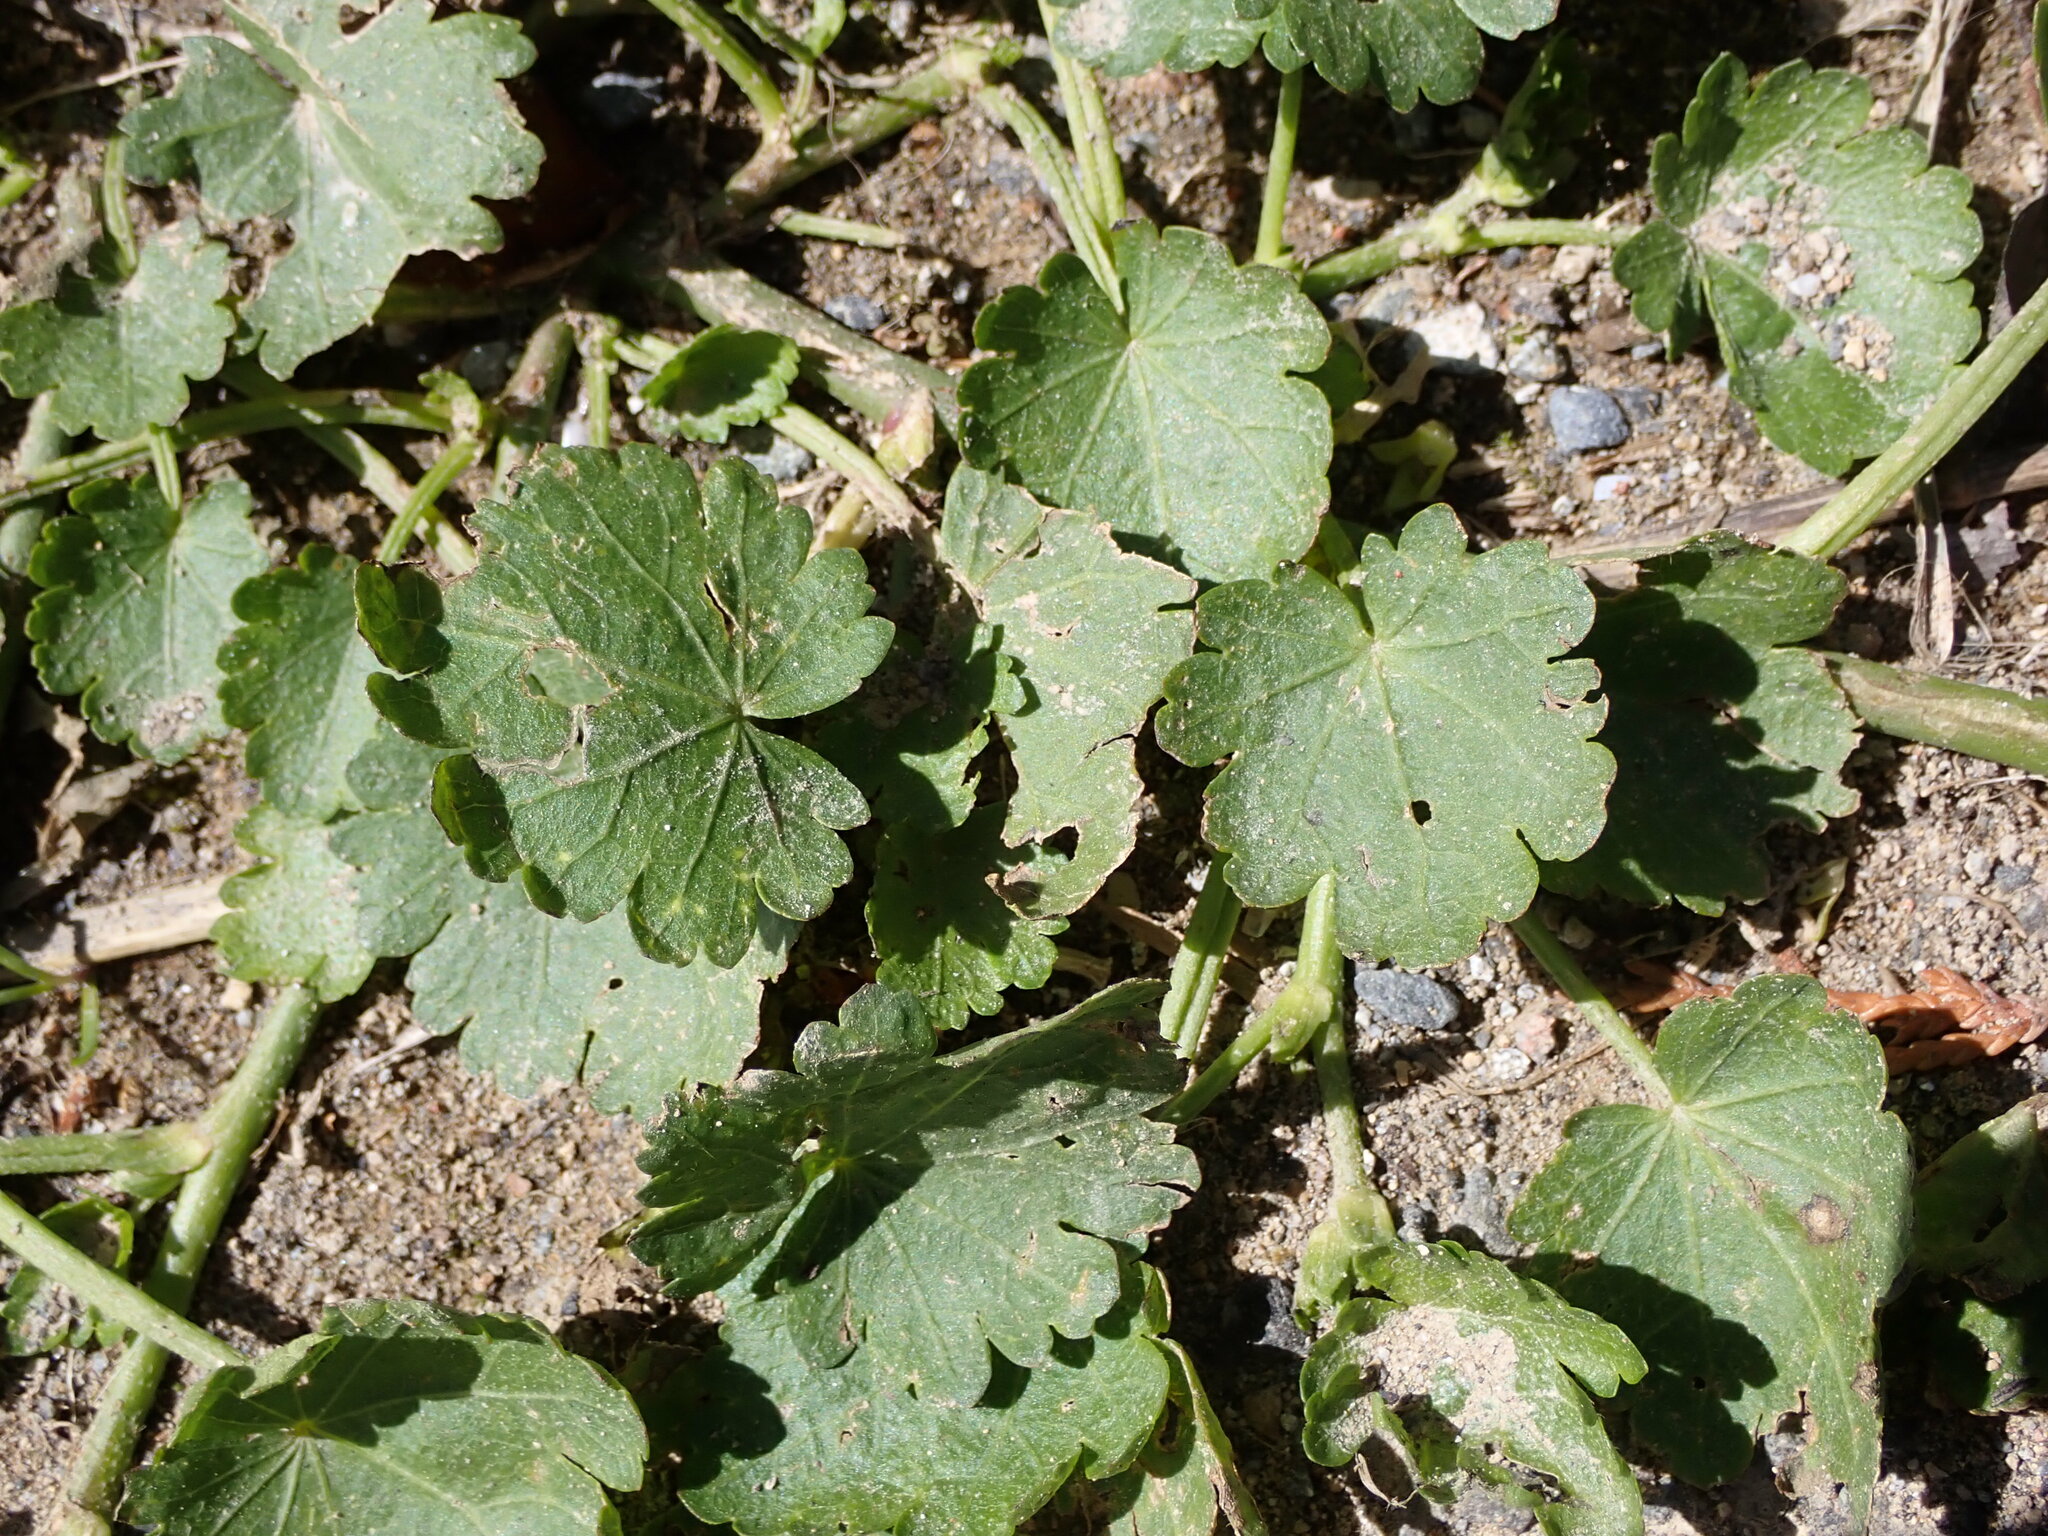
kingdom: Plantae
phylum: Tracheophyta
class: Magnoliopsida
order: Malvales
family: Malvaceae
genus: Modiola
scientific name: Modiola caroliniana
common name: Carolina bristlemallow
